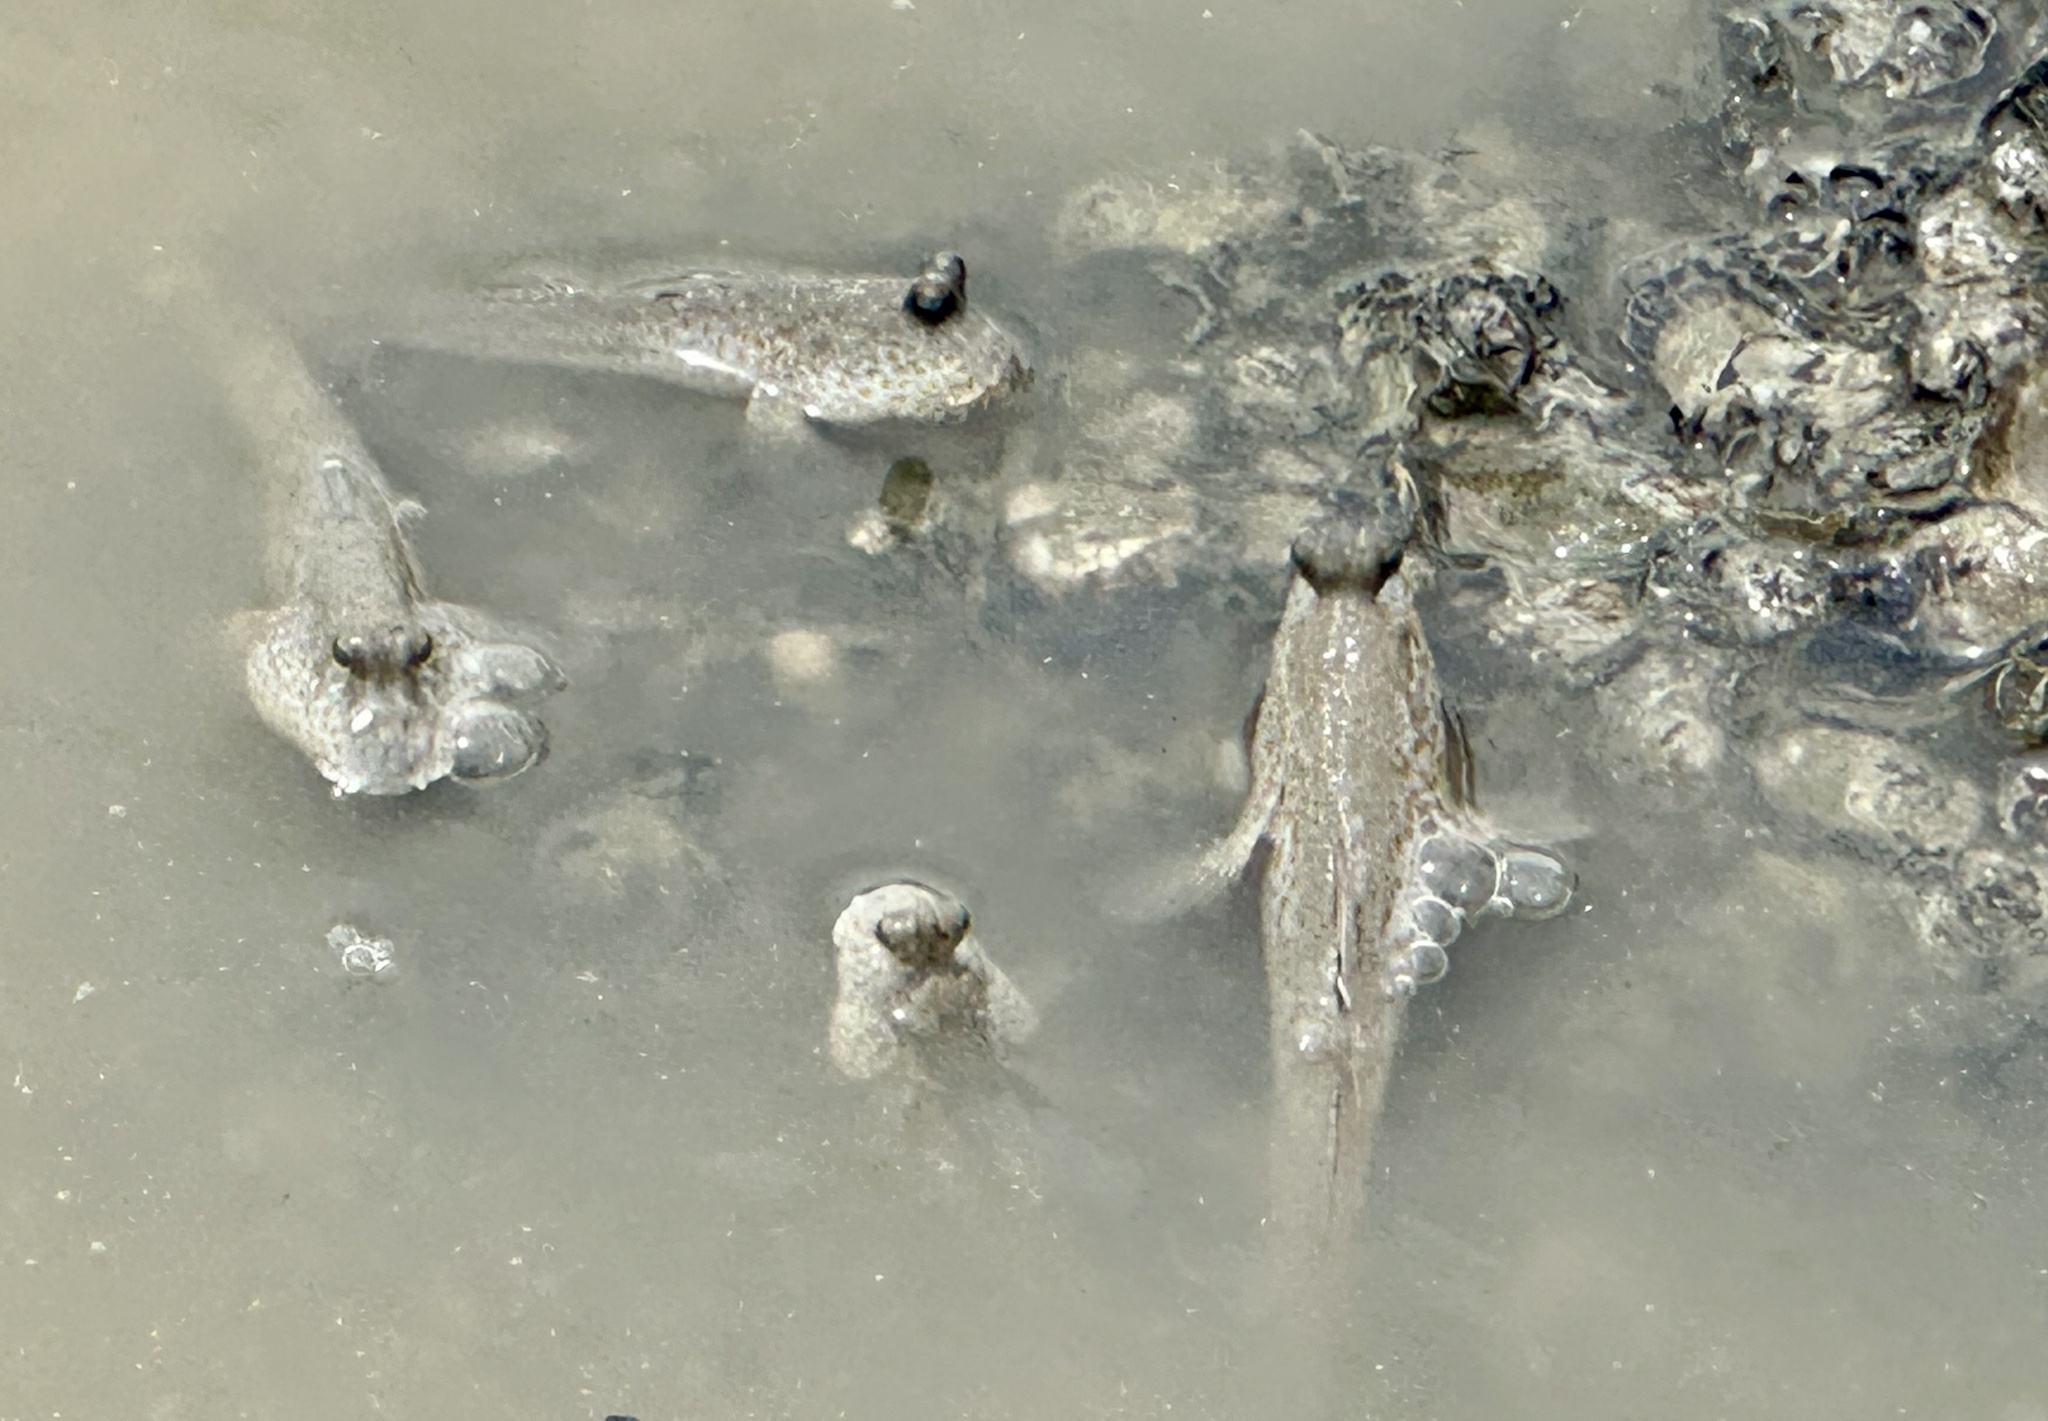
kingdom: Animalia
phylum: Chordata
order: Perciformes
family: Gobiidae
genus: Periophthalmus
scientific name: Periophthalmus chrysospilos
